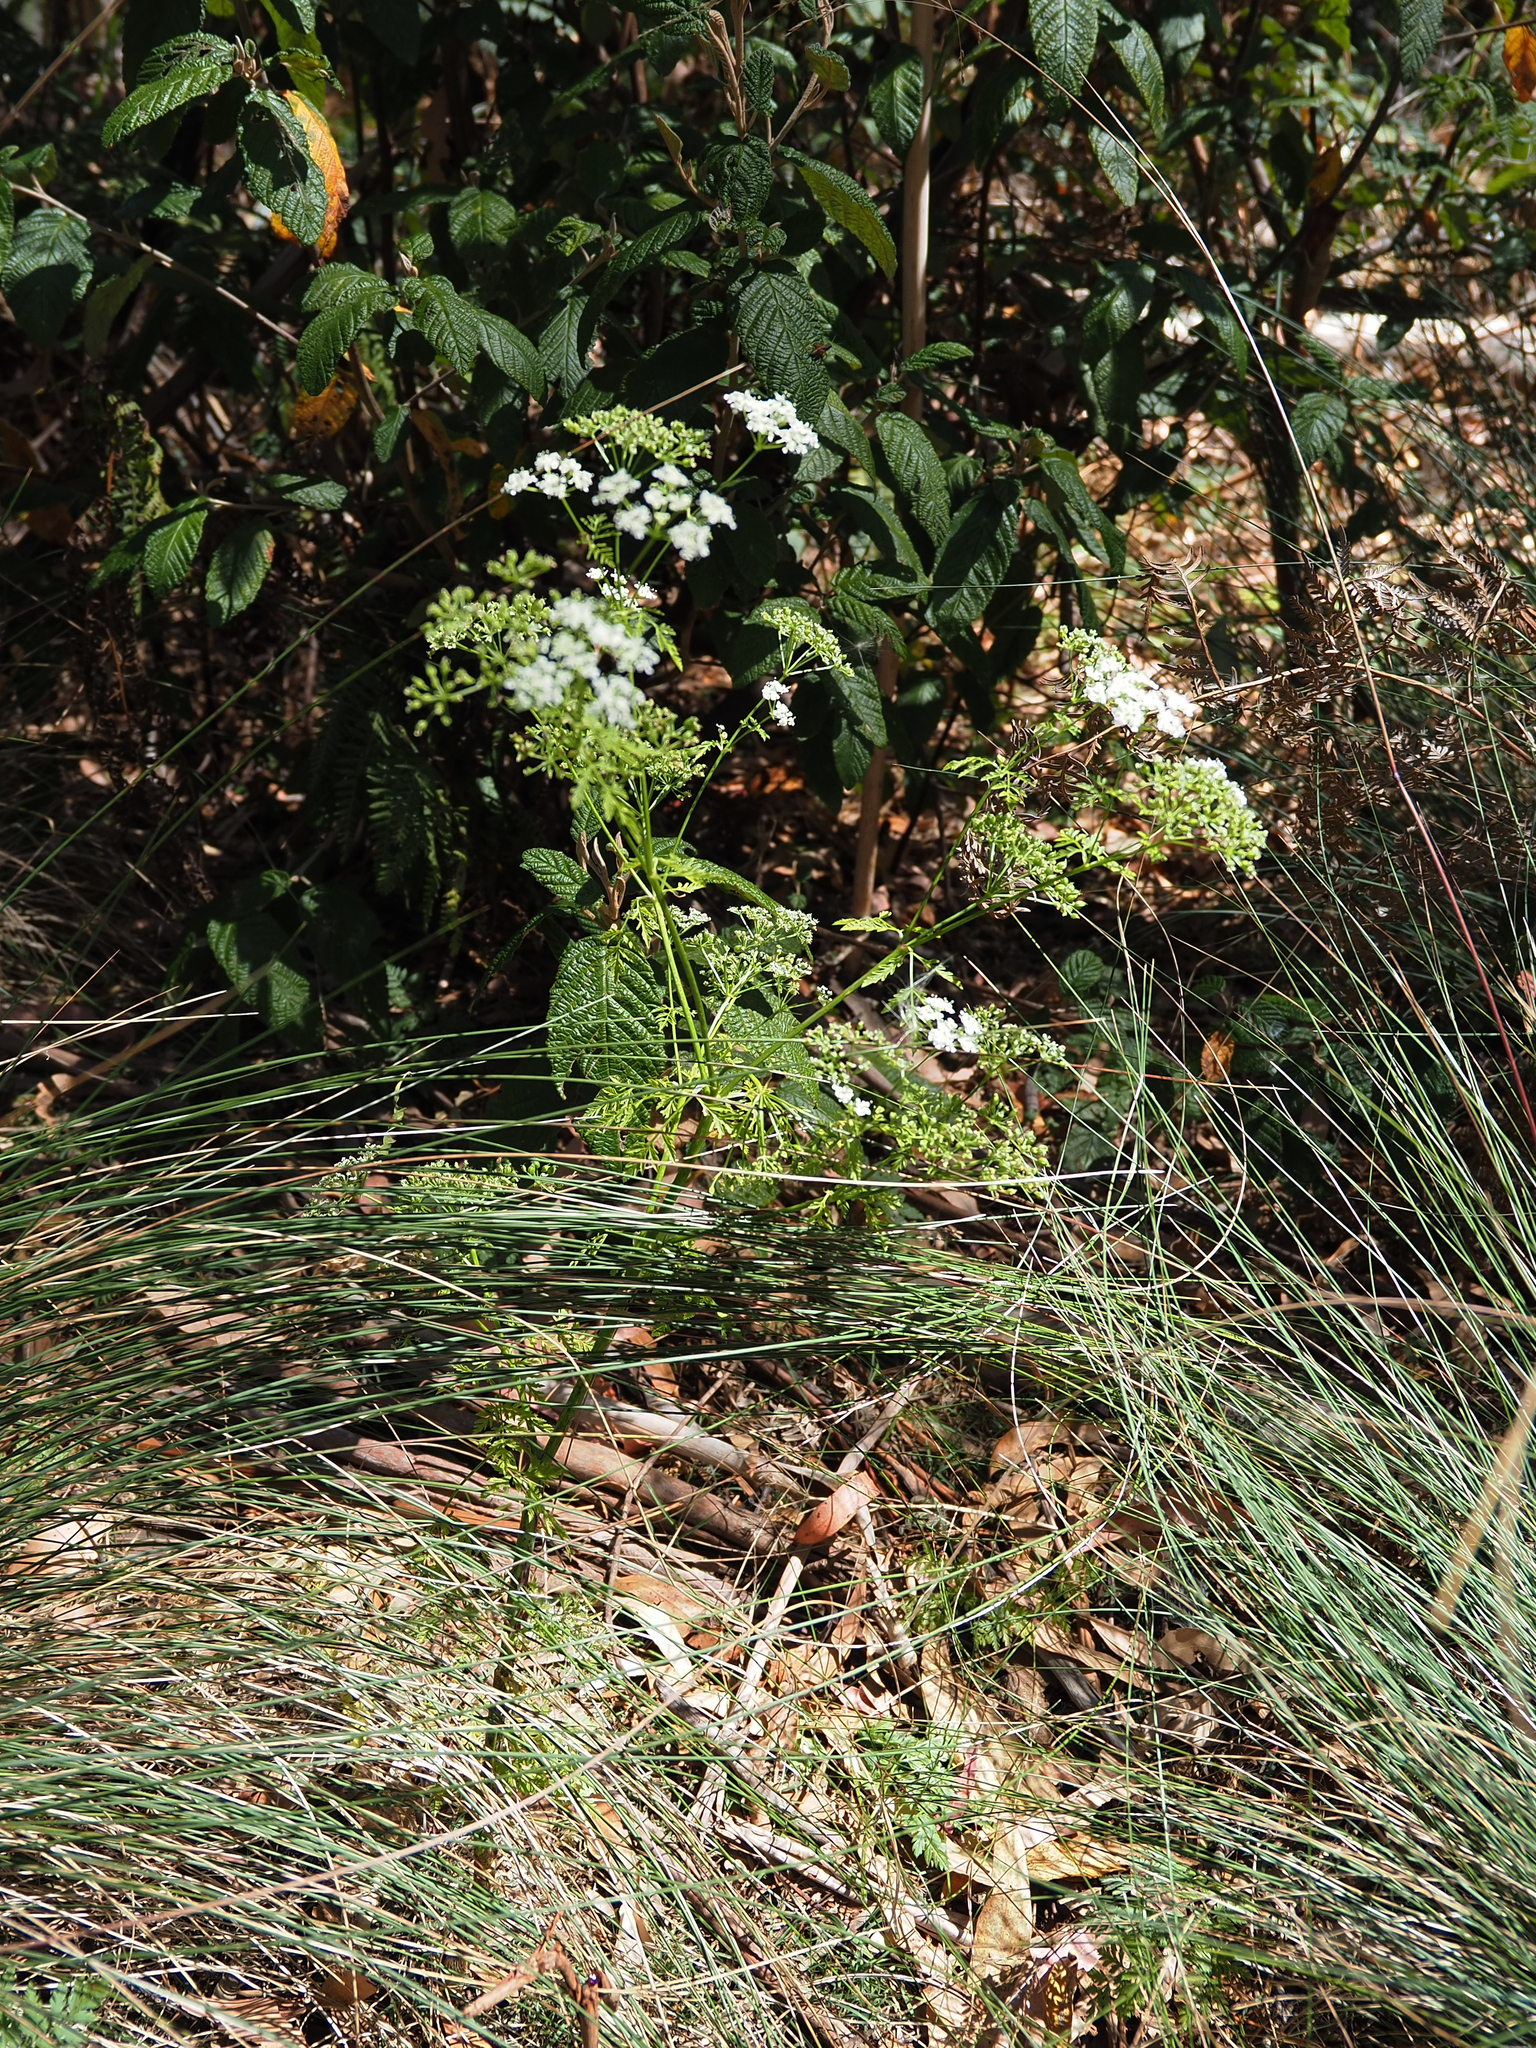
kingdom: Plantae
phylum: Tracheophyta
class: Magnoliopsida
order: Apiales
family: Apiaceae
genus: Conium
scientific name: Conium maculatum
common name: Hemlock
